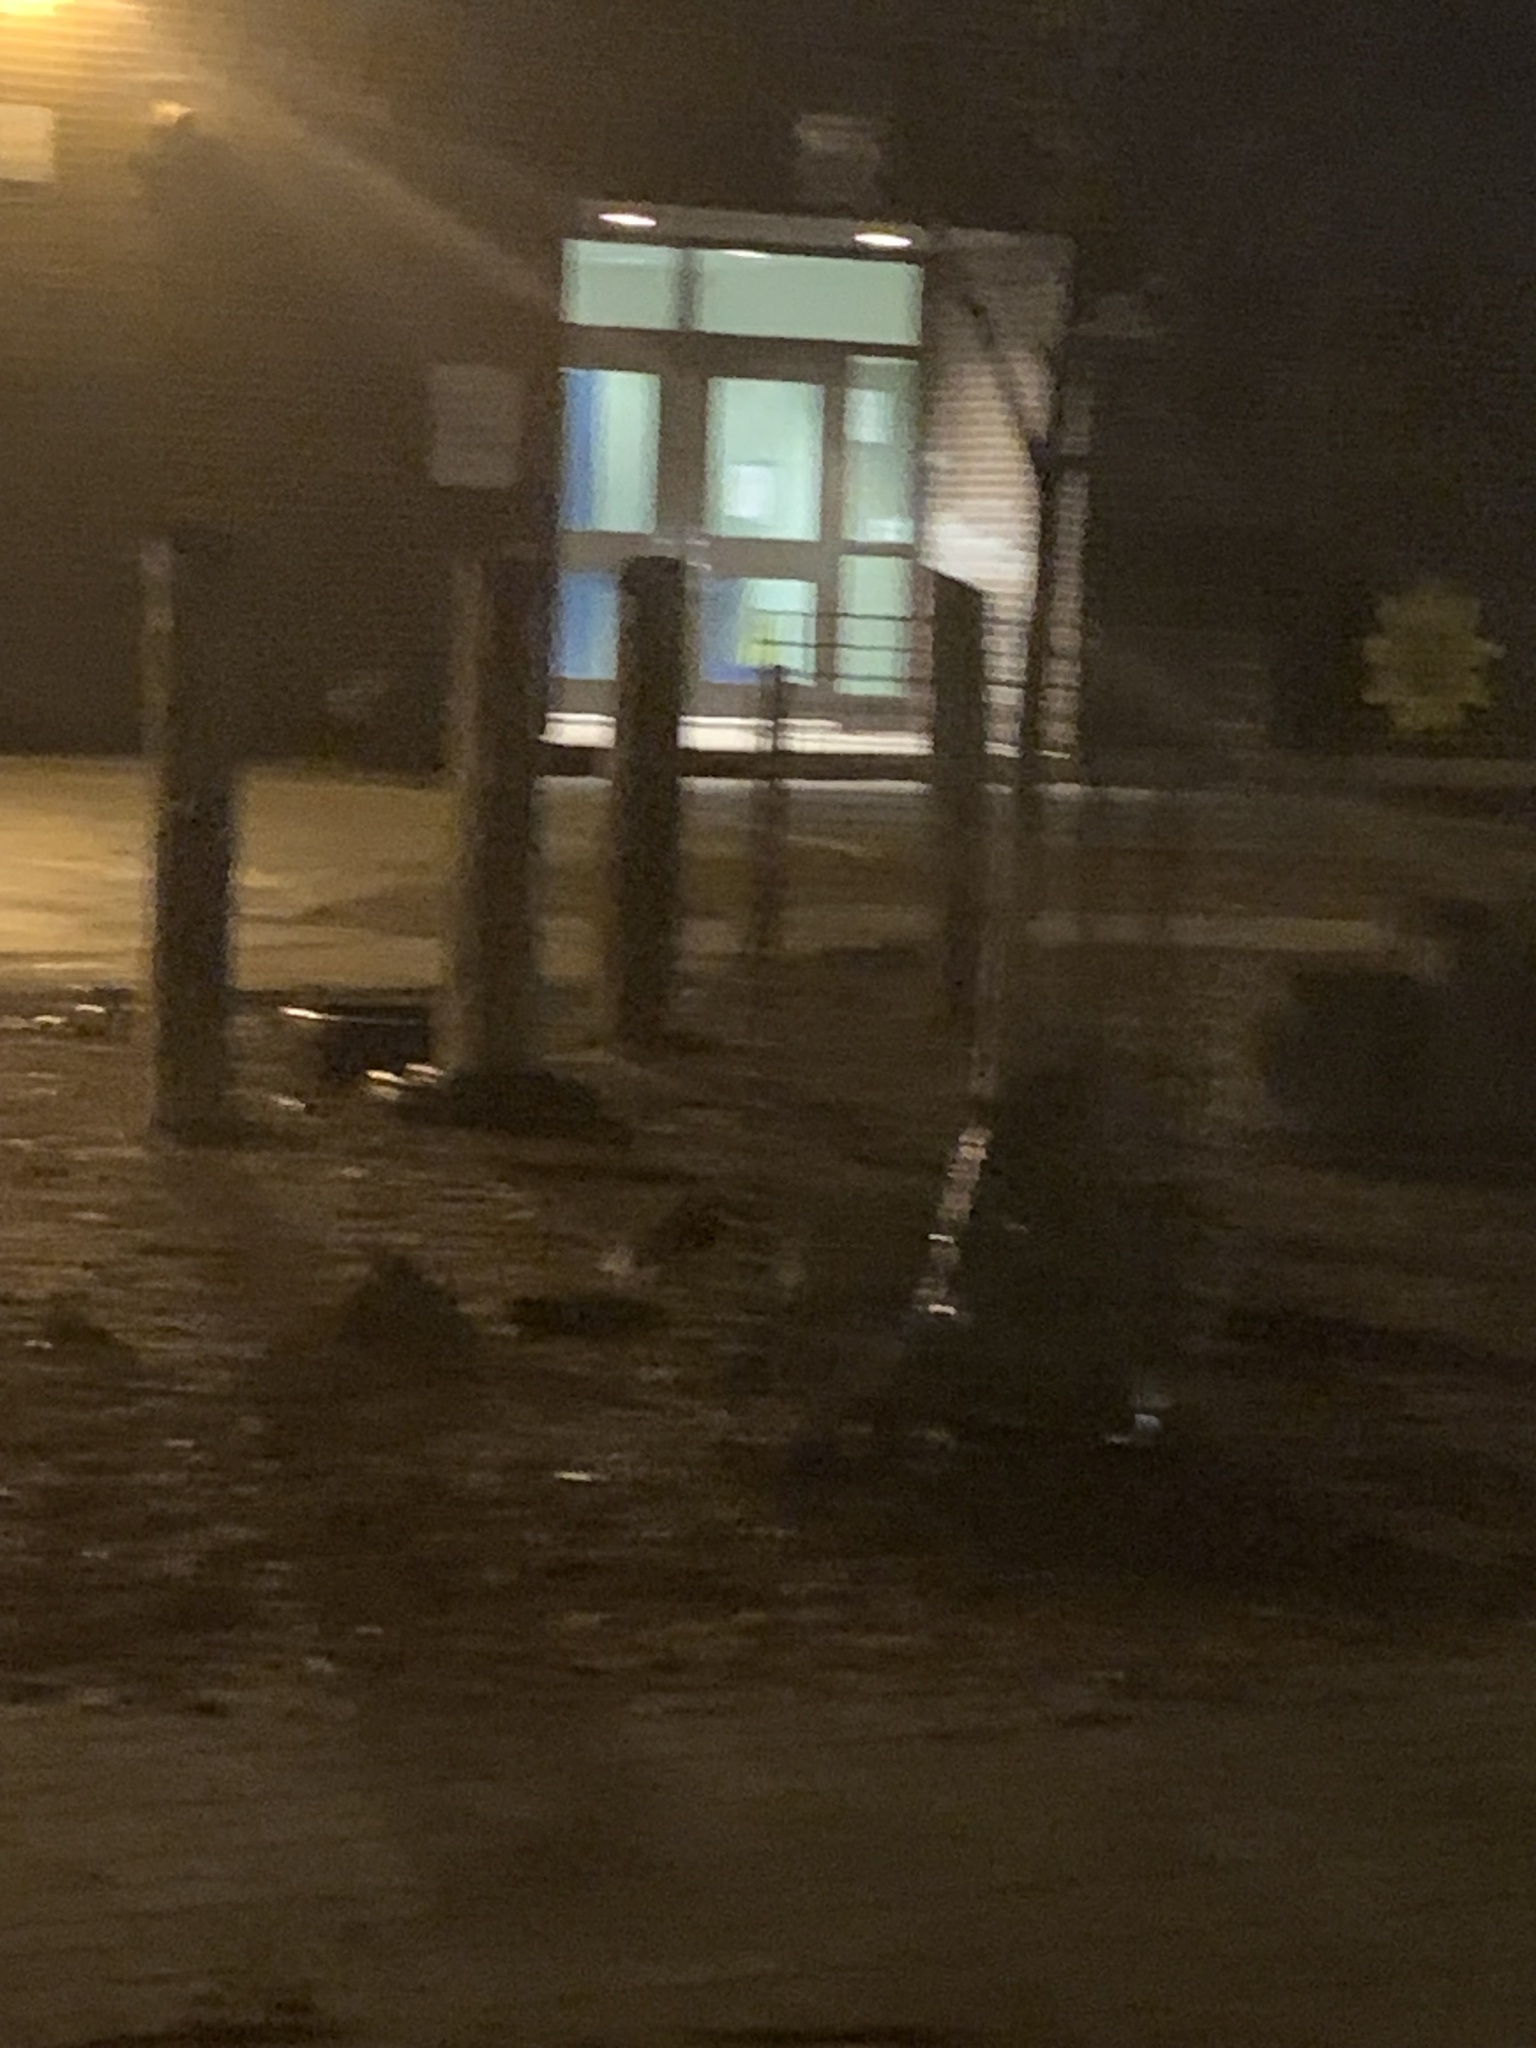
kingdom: Animalia
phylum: Chordata
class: Mammalia
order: Carnivora
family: Canidae
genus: Vulpes
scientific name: Vulpes vulpes
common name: Red fox
